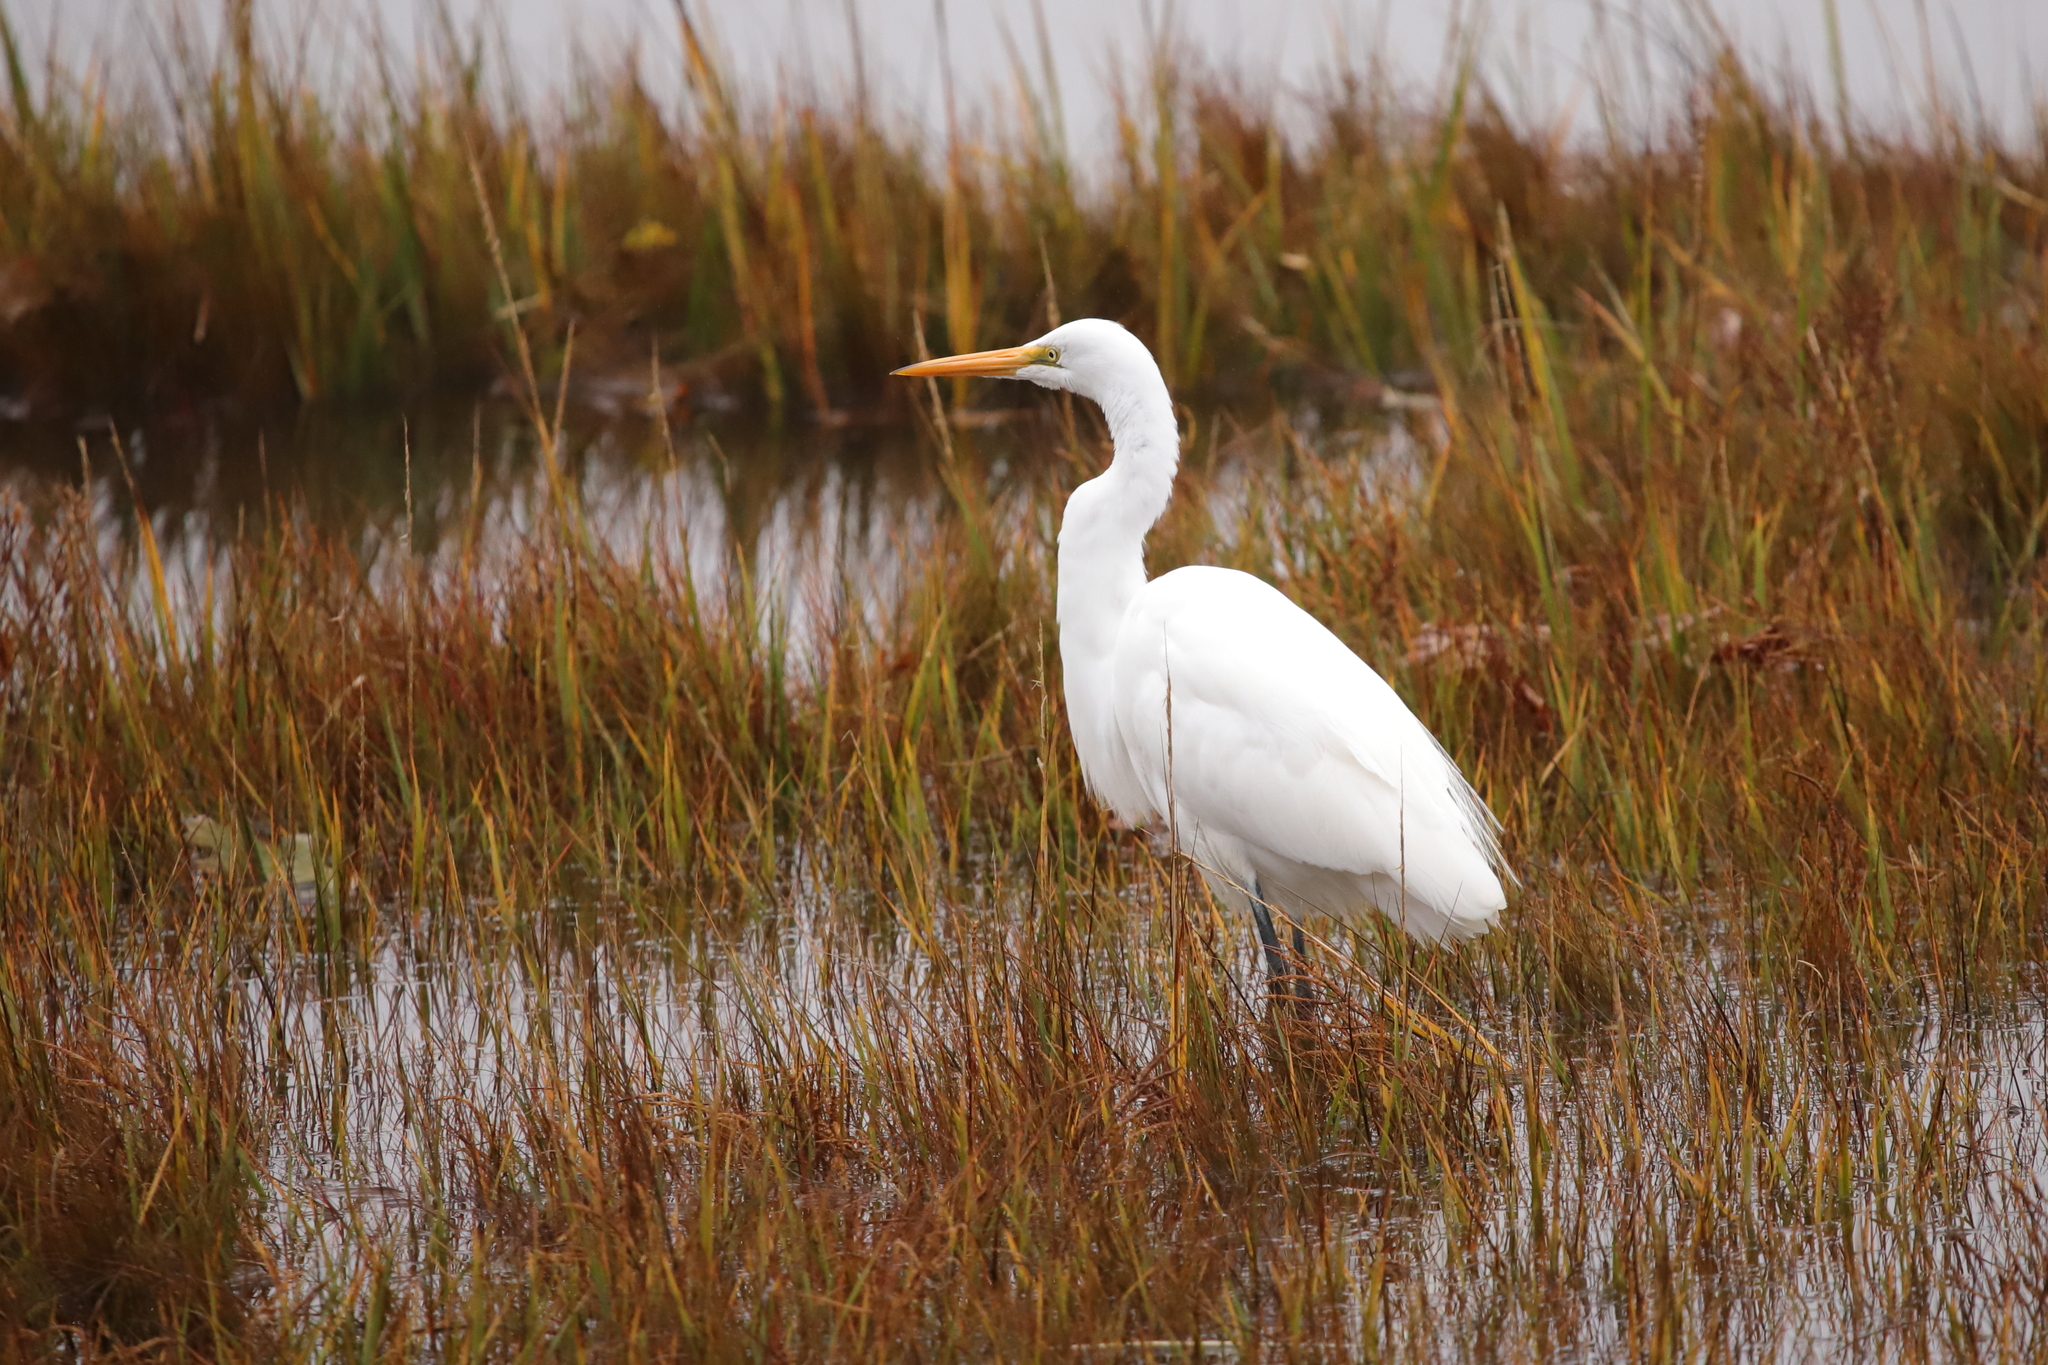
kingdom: Animalia
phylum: Chordata
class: Aves
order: Pelecaniformes
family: Ardeidae
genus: Ardea
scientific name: Ardea alba
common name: Great egret
